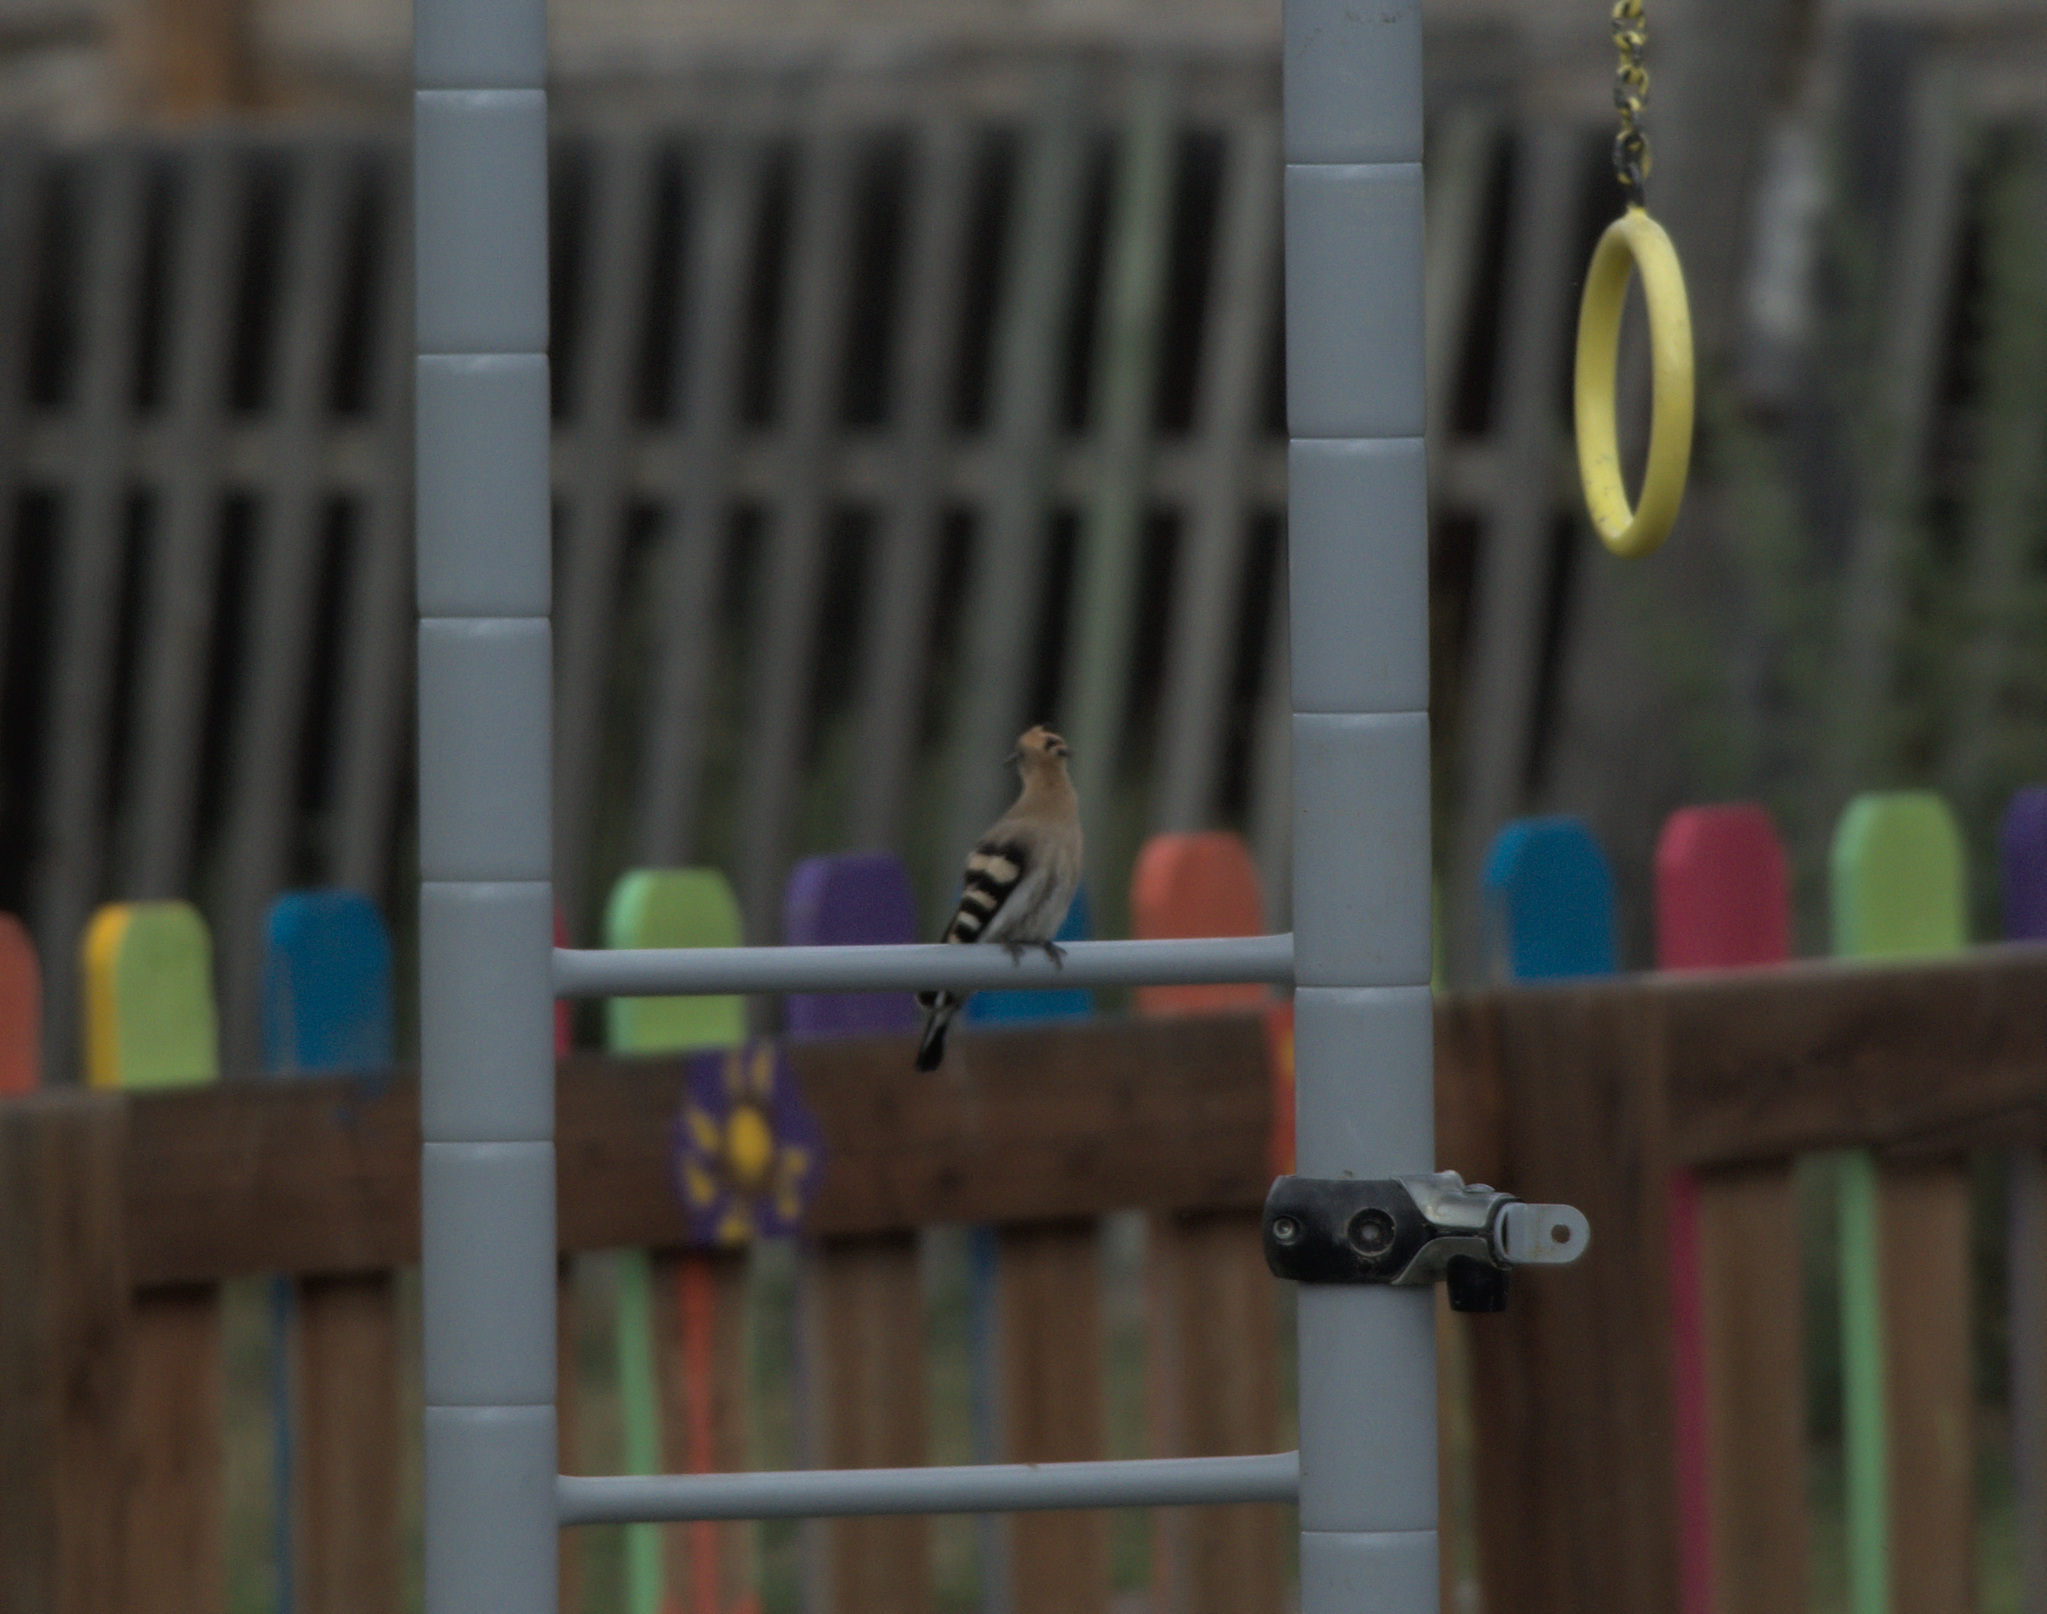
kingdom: Animalia
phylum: Chordata
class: Aves
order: Bucerotiformes
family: Upupidae
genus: Upupa
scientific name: Upupa epops
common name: Eurasian hoopoe
